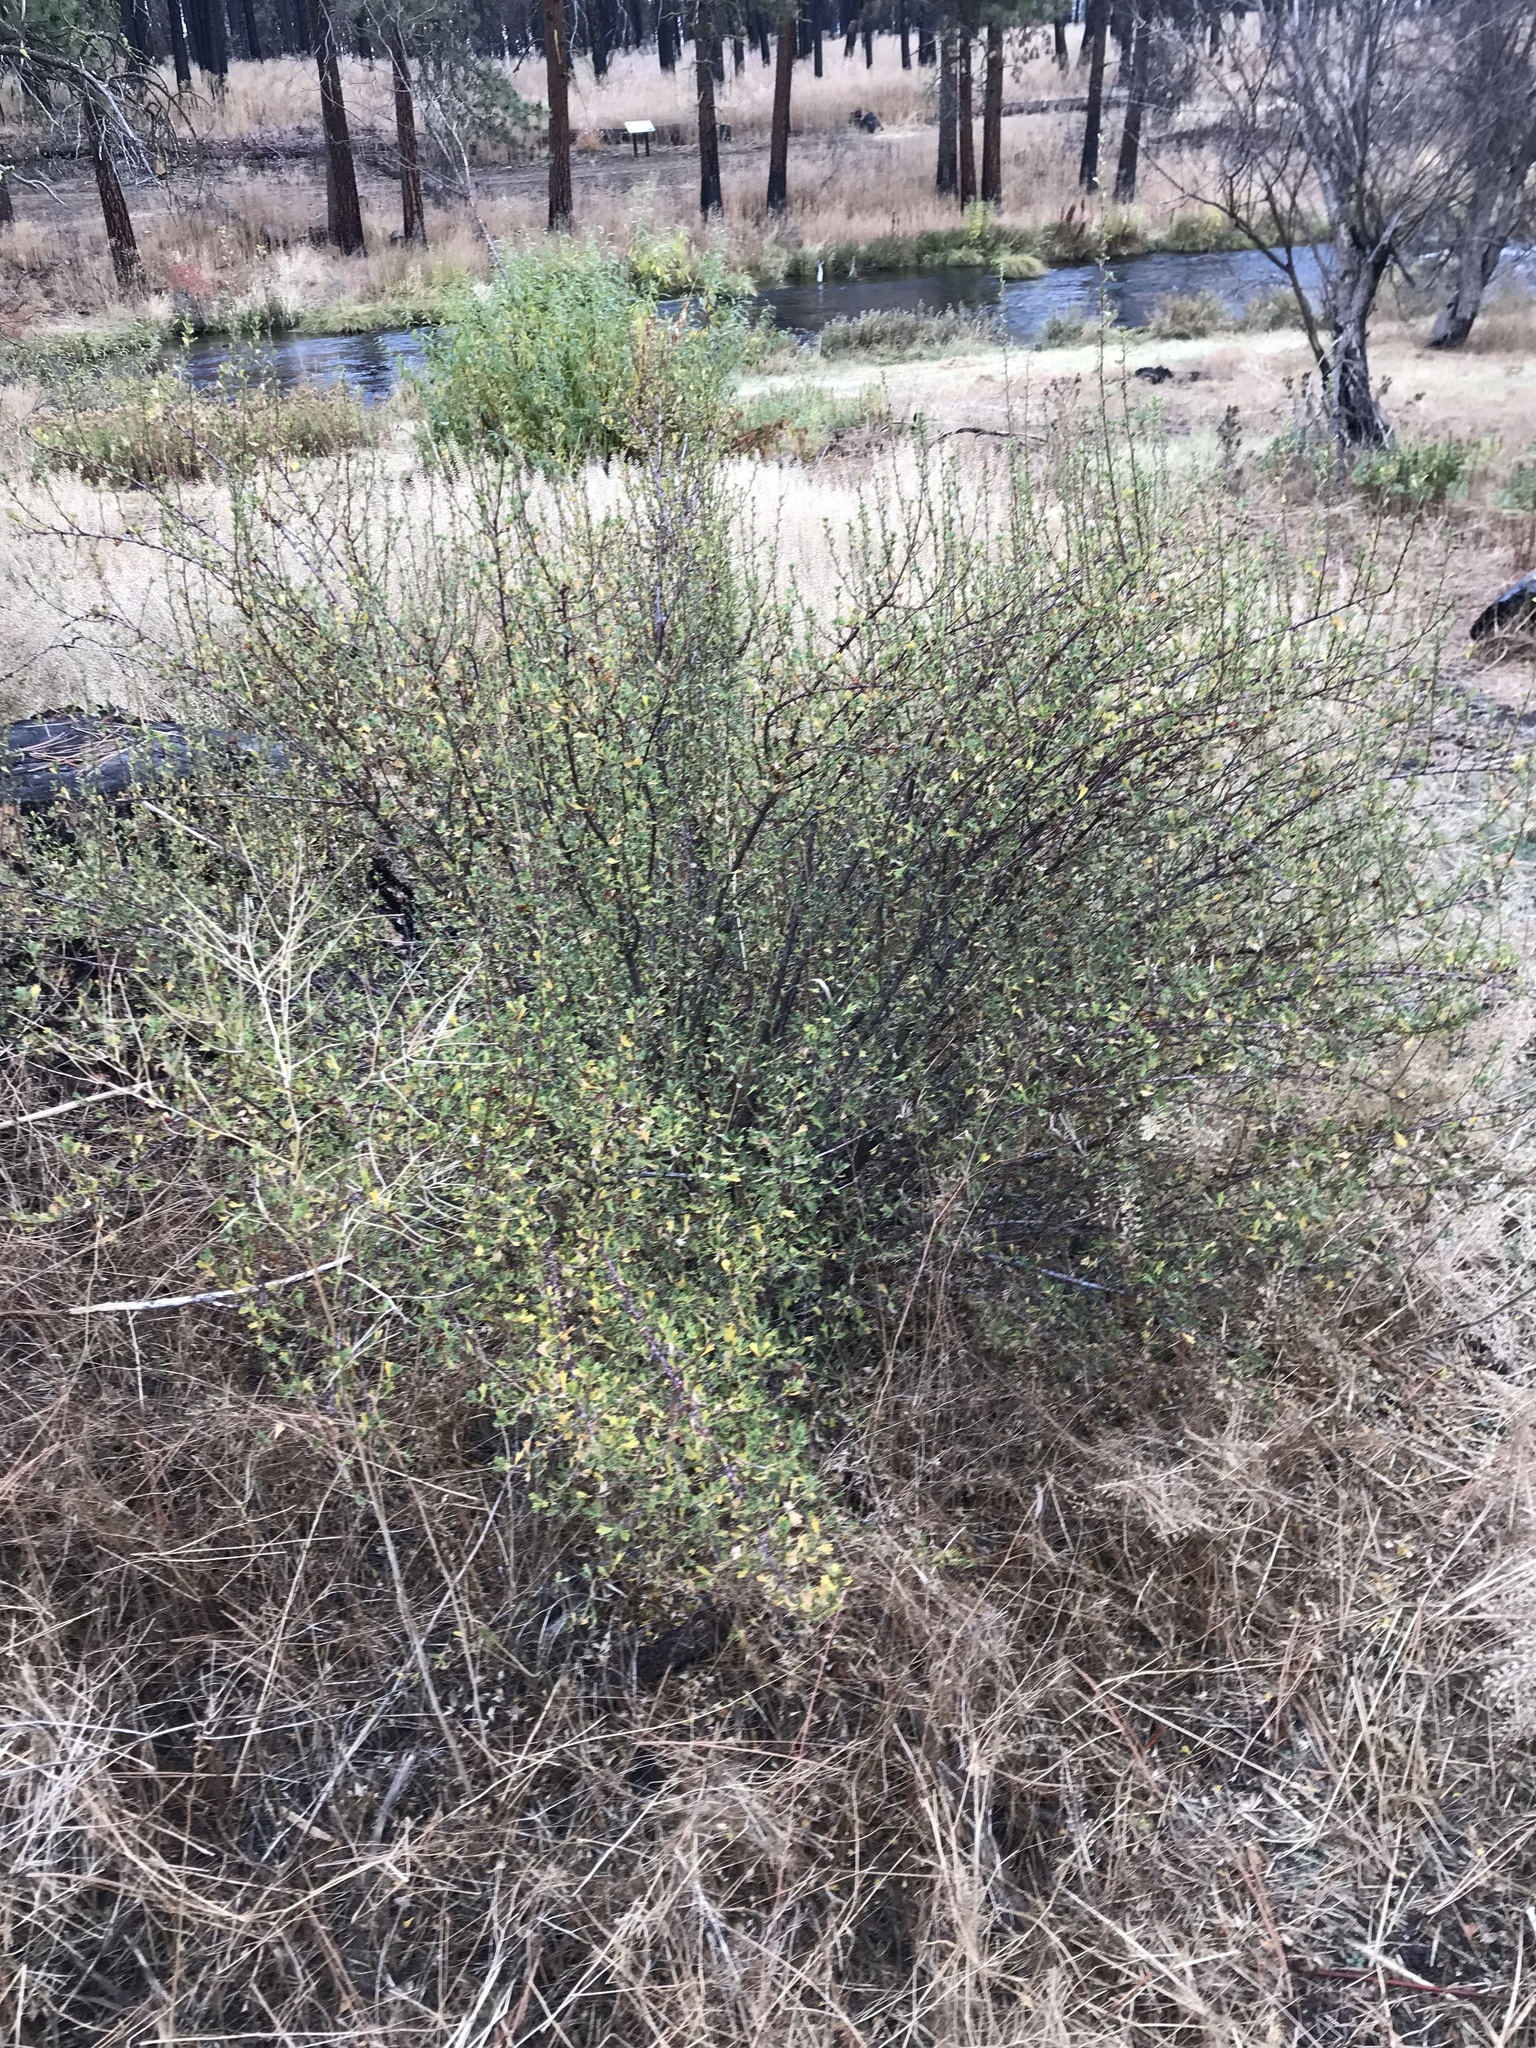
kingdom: Plantae
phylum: Tracheophyta
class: Magnoliopsida
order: Rosales
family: Rosaceae
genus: Purshia
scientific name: Purshia tridentata
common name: Antelope bitterbrush
